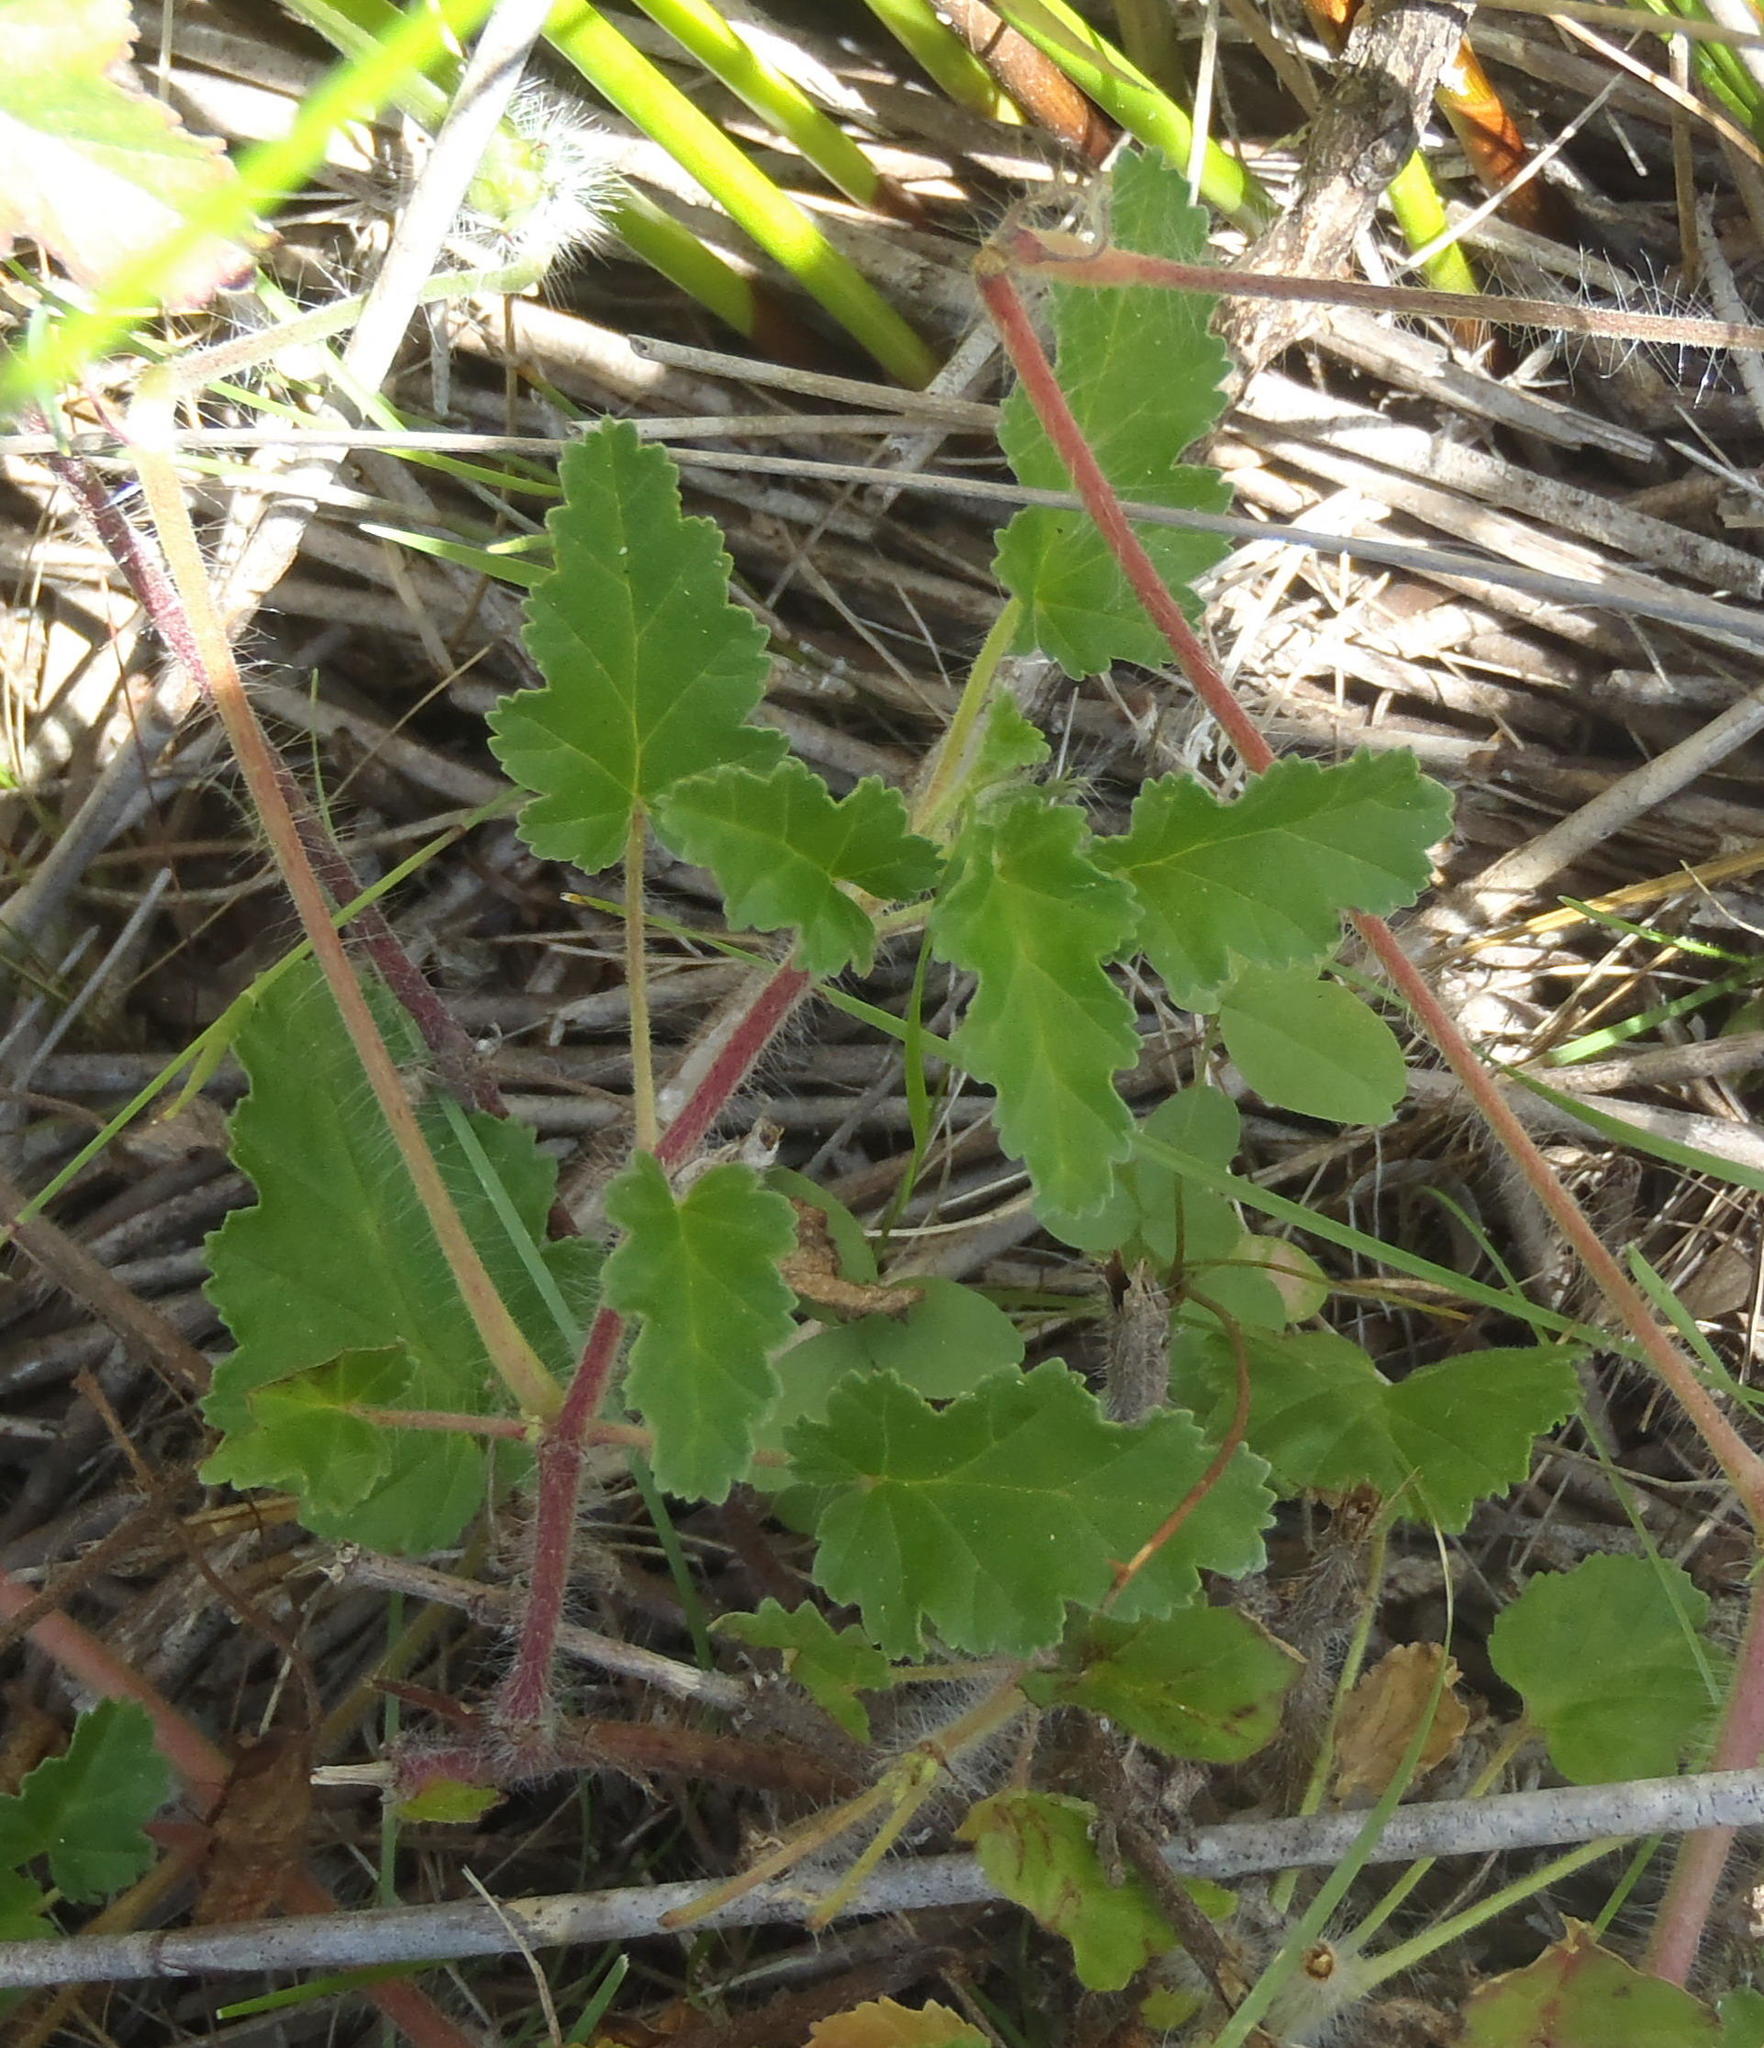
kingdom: Plantae
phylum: Tracheophyta
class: Magnoliopsida
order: Geraniales
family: Geraniaceae
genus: Monsonia
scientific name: Monsonia emarginata
